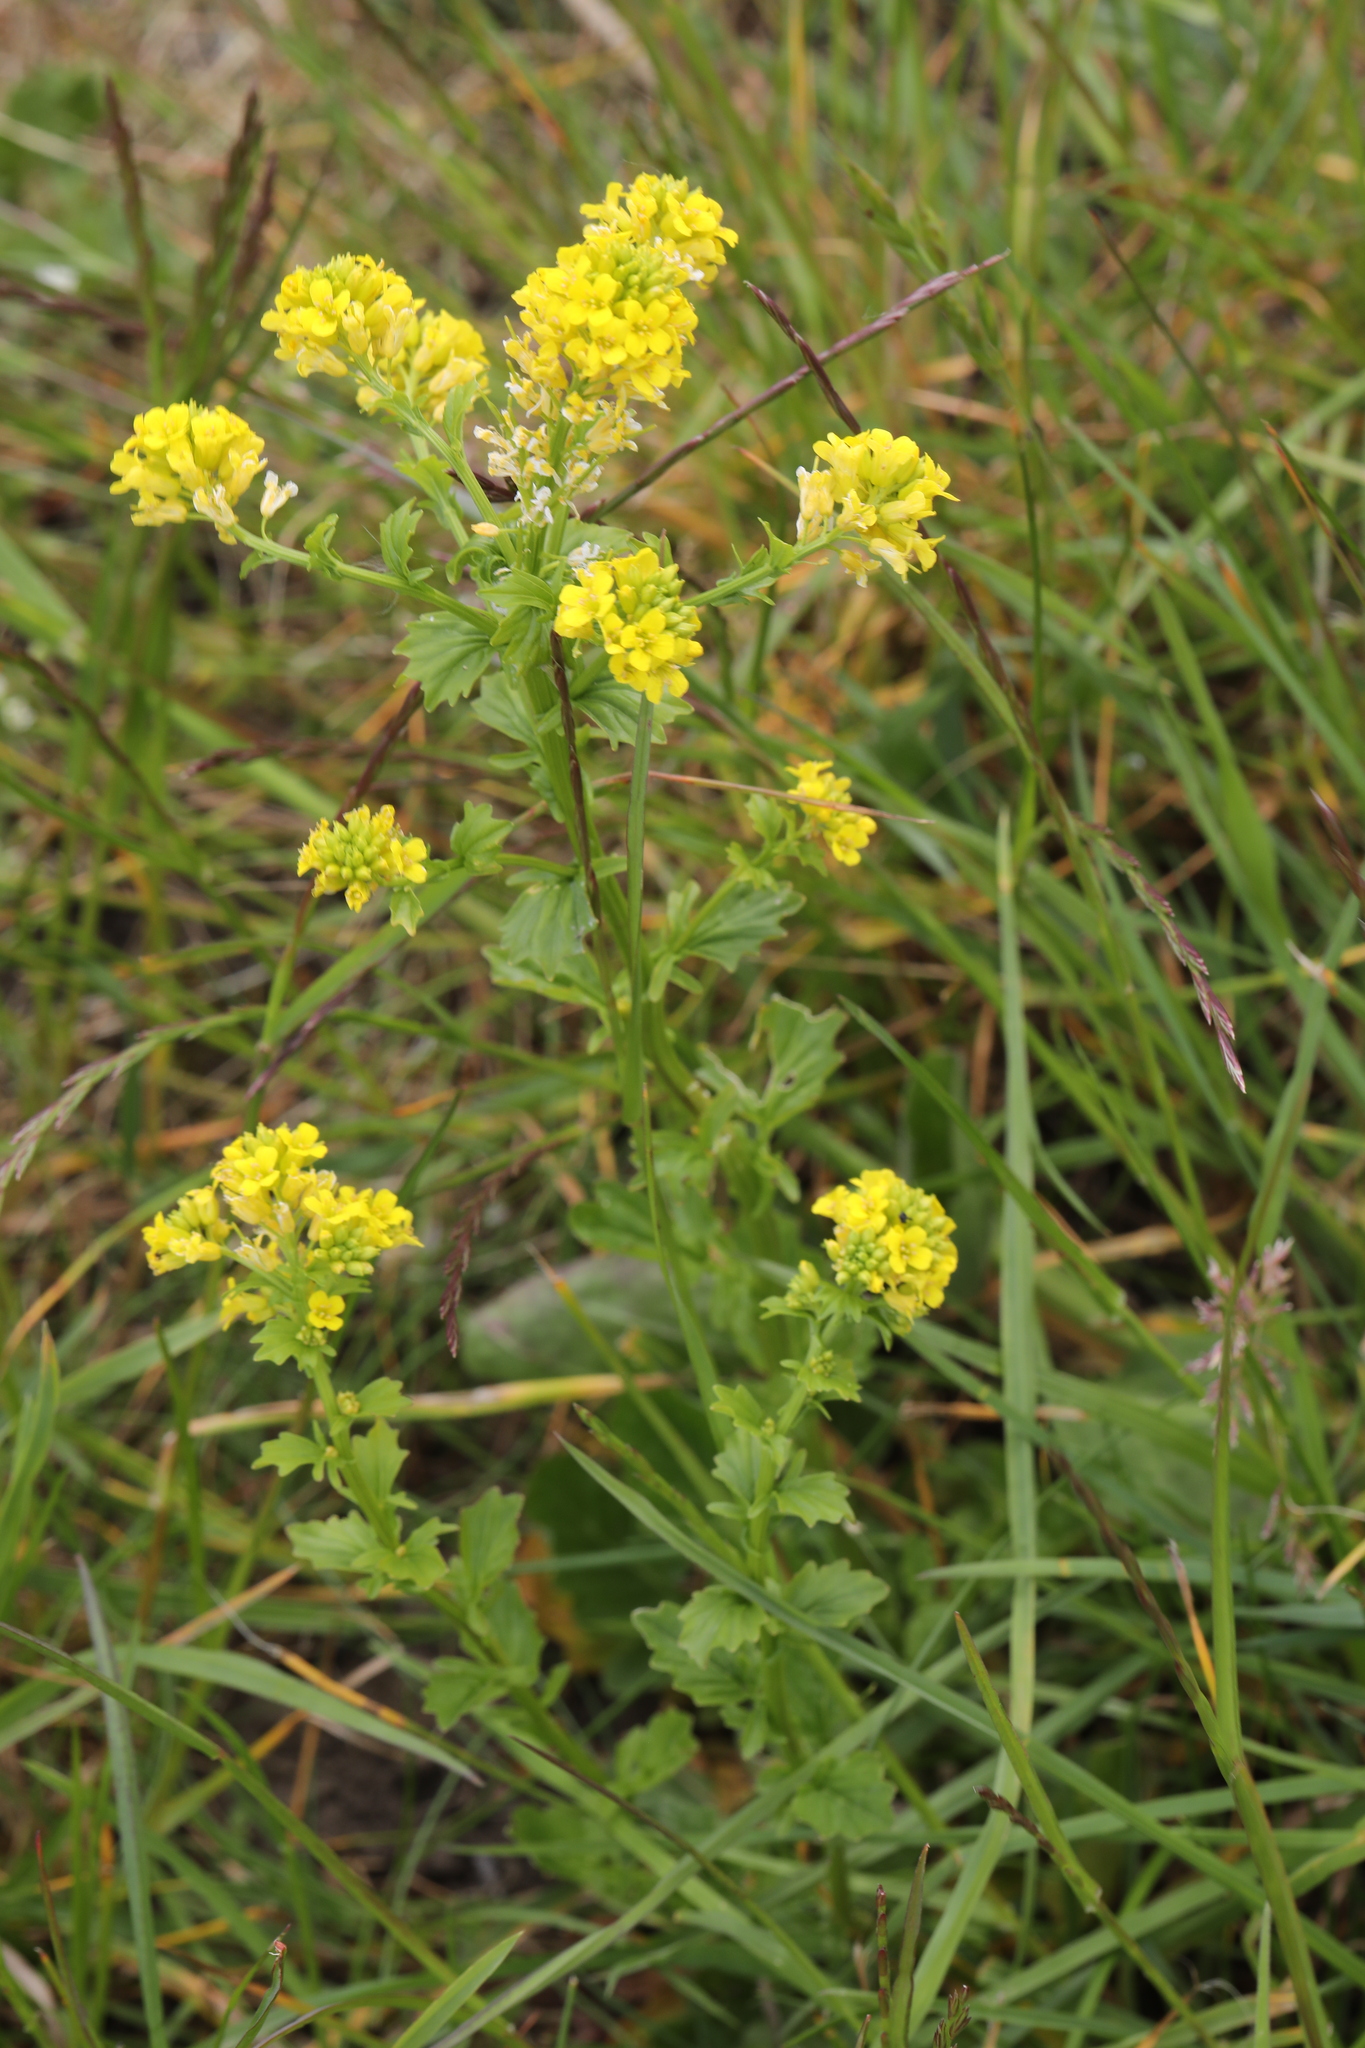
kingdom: Plantae
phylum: Tracheophyta
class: Magnoliopsida
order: Brassicales
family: Brassicaceae
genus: Barbarea
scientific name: Barbarea vulgaris
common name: Cressy-greens
